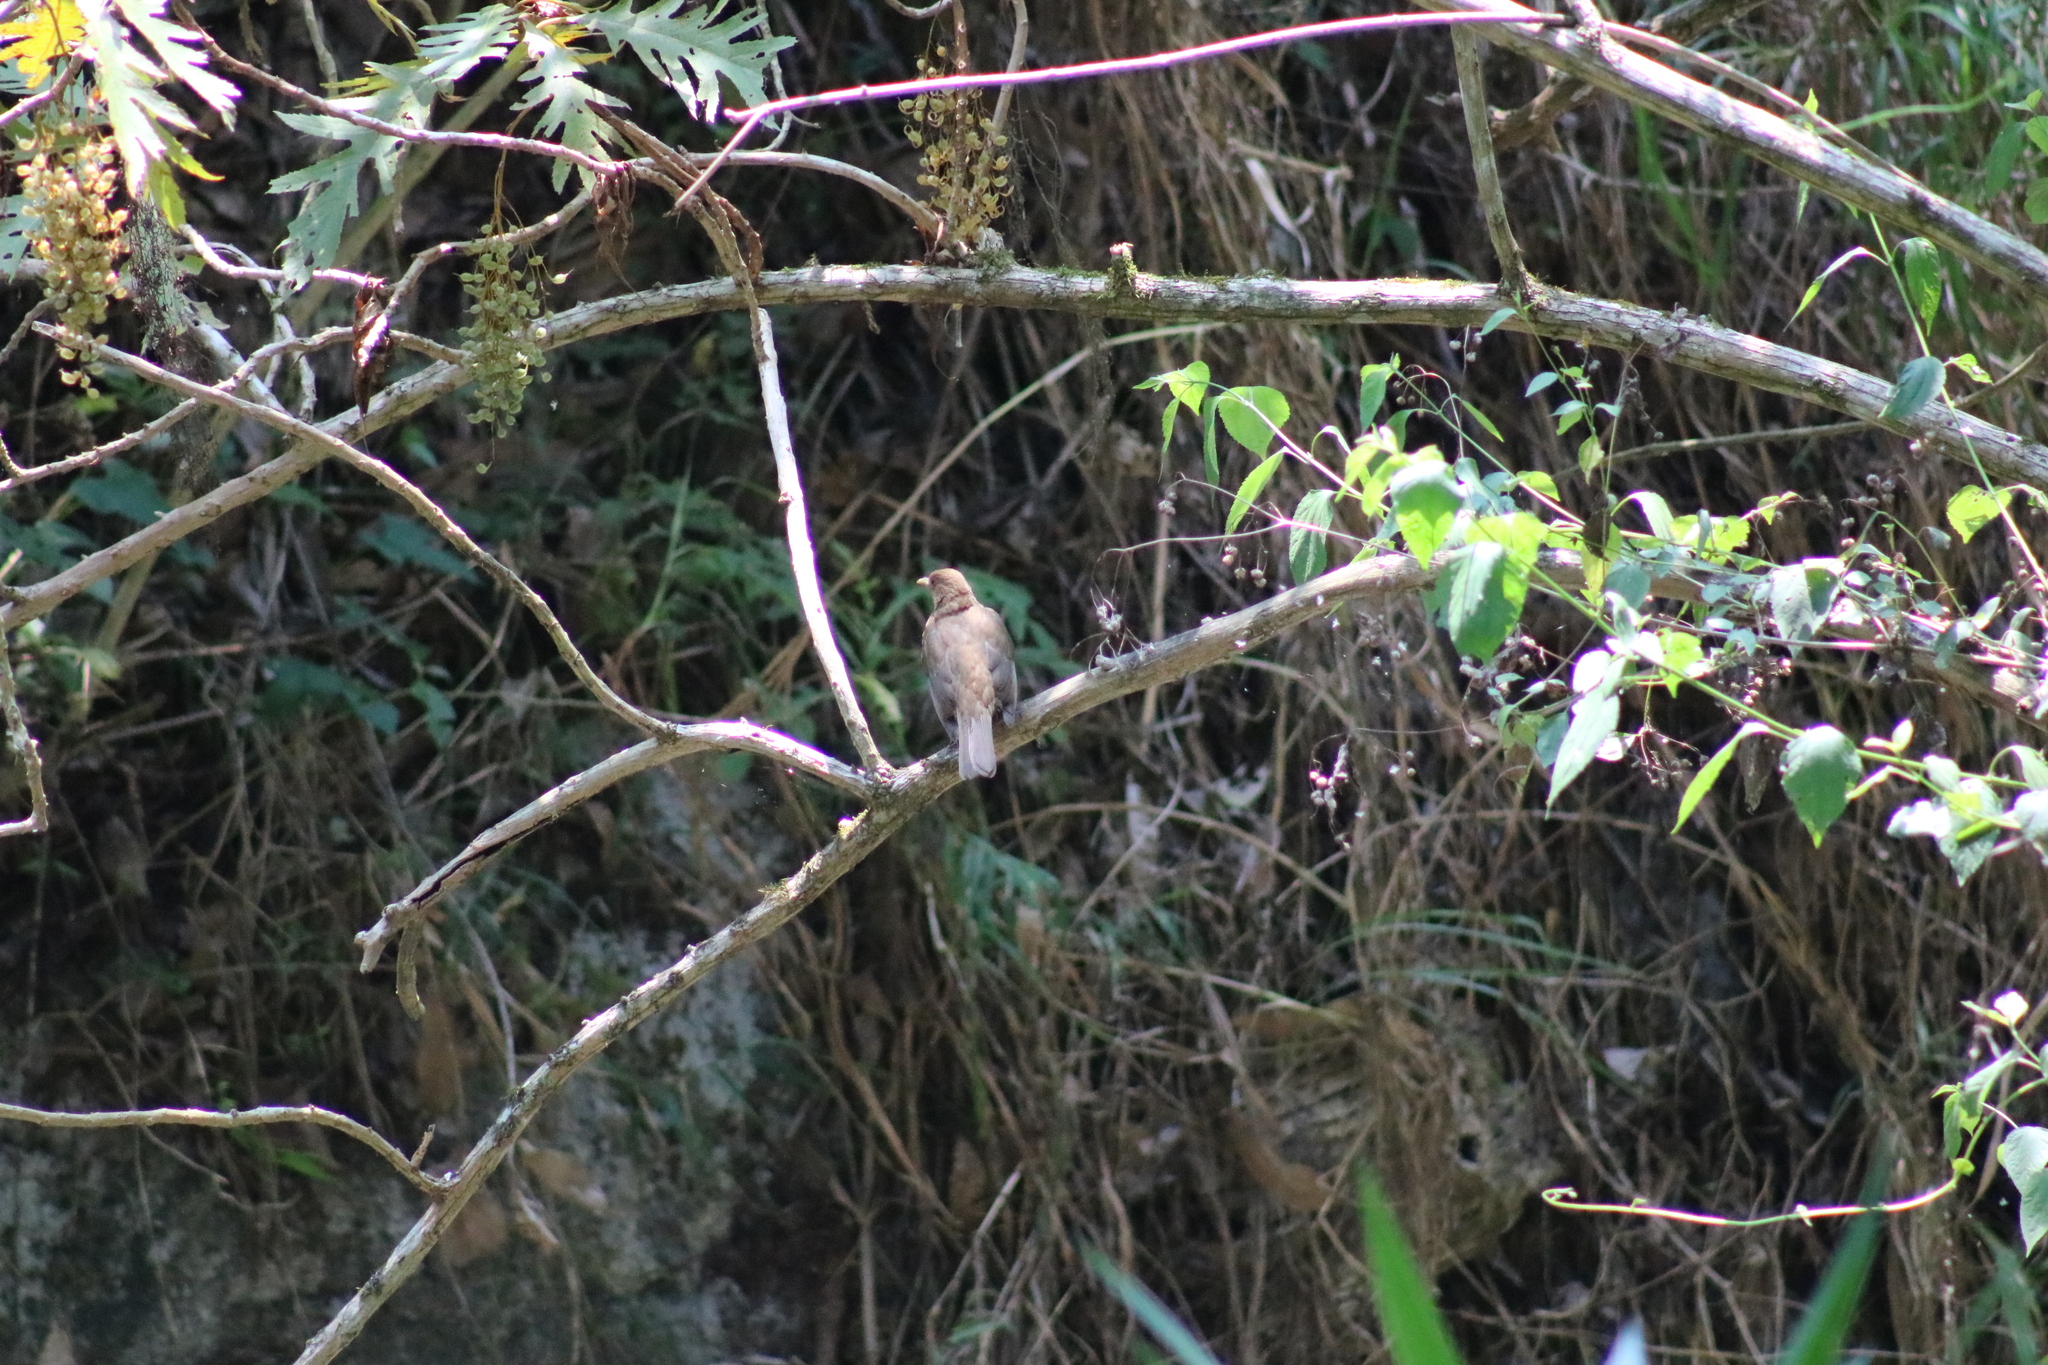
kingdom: Animalia
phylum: Chordata
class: Aves
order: Passeriformes
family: Turdidae
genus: Turdus
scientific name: Turdus grayi
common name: Clay-colored thrush
